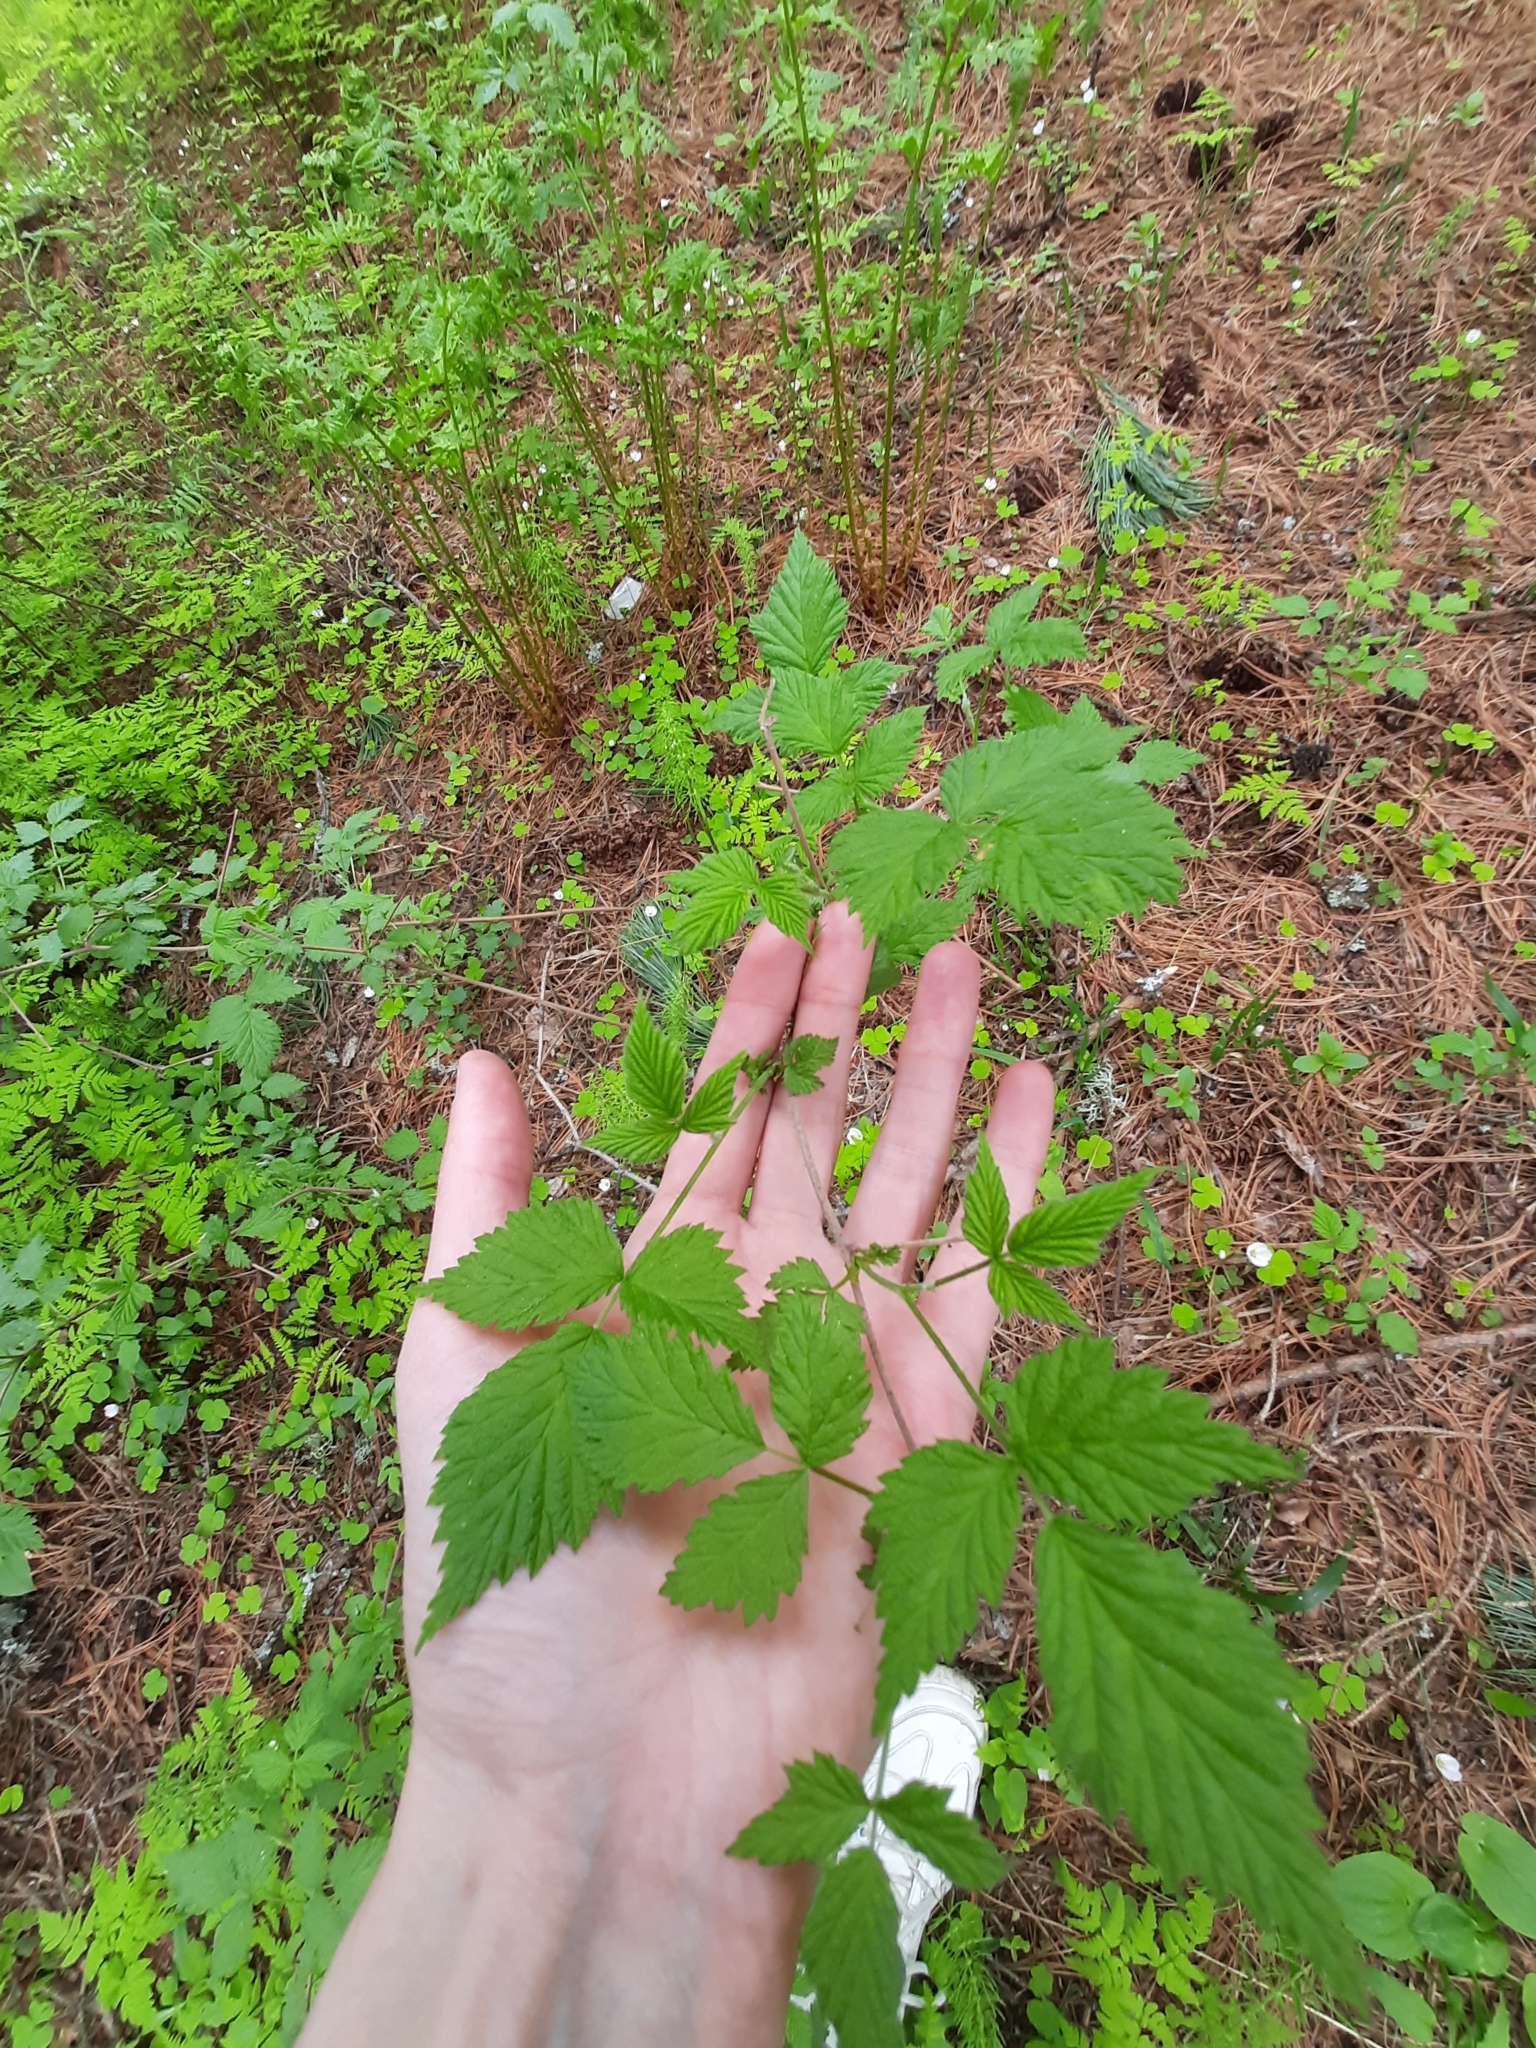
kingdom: Plantae
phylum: Tracheophyta
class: Magnoliopsida
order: Rosales
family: Rosaceae
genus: Rubus
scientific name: Rubus idaeus
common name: Raspberry
